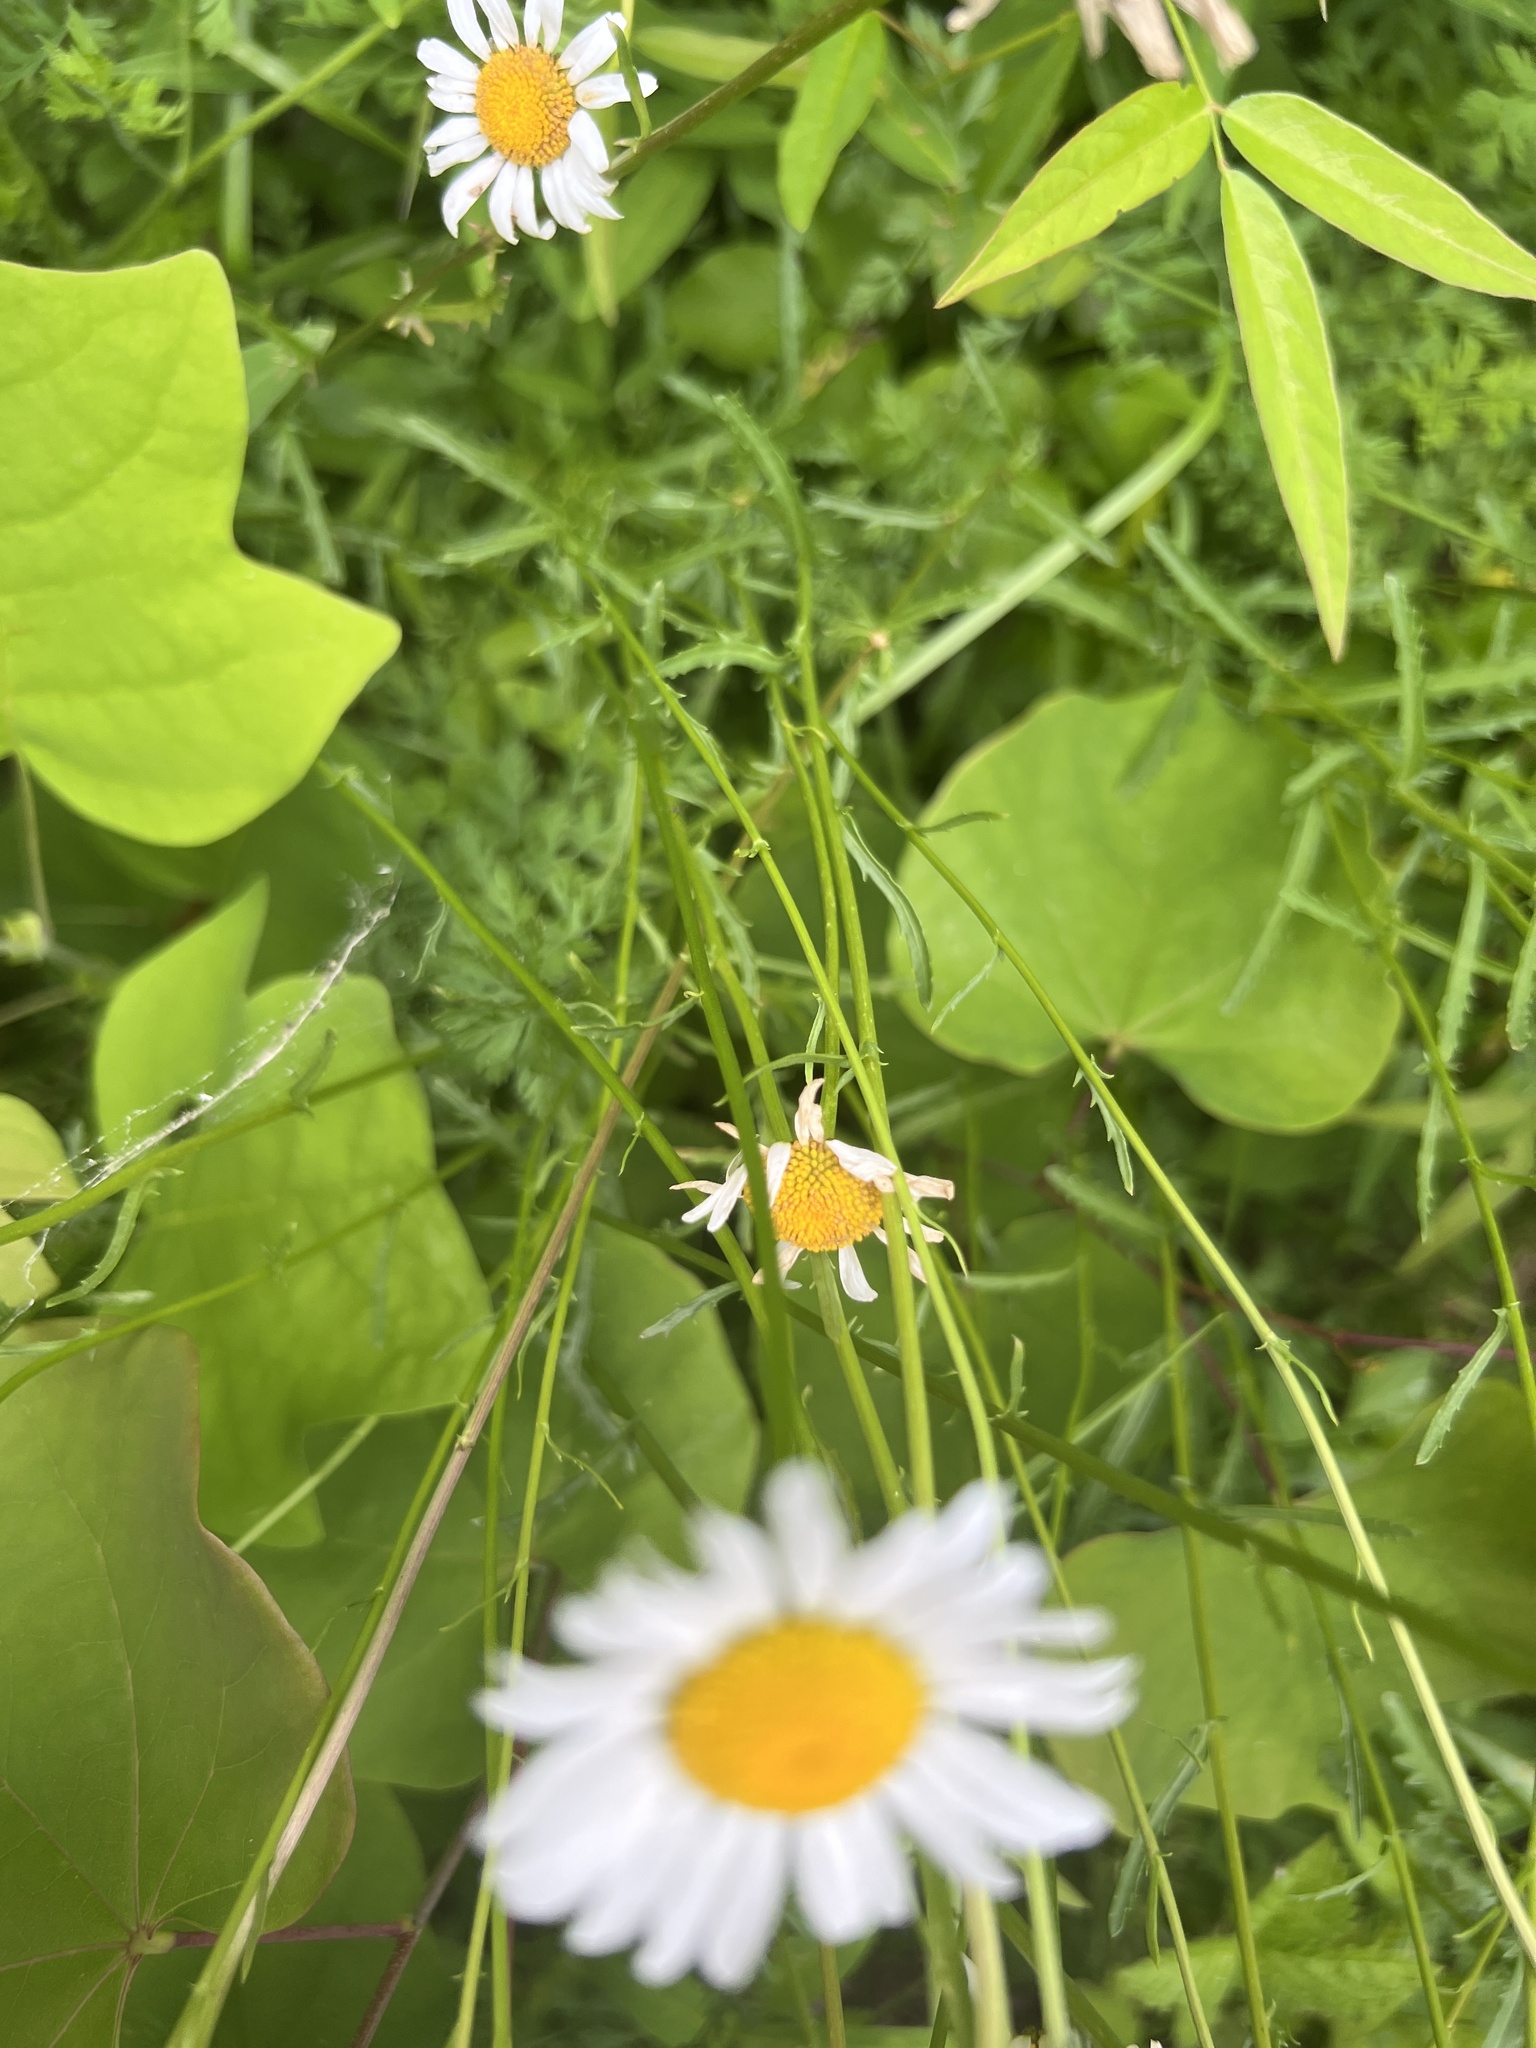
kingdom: Plantae
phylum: Tracheophyta
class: Magnoliopsida
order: Asterales
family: Asteraceae
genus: Leucanthemum
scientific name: Leucanthemum vulgare
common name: Oxeye daisy
